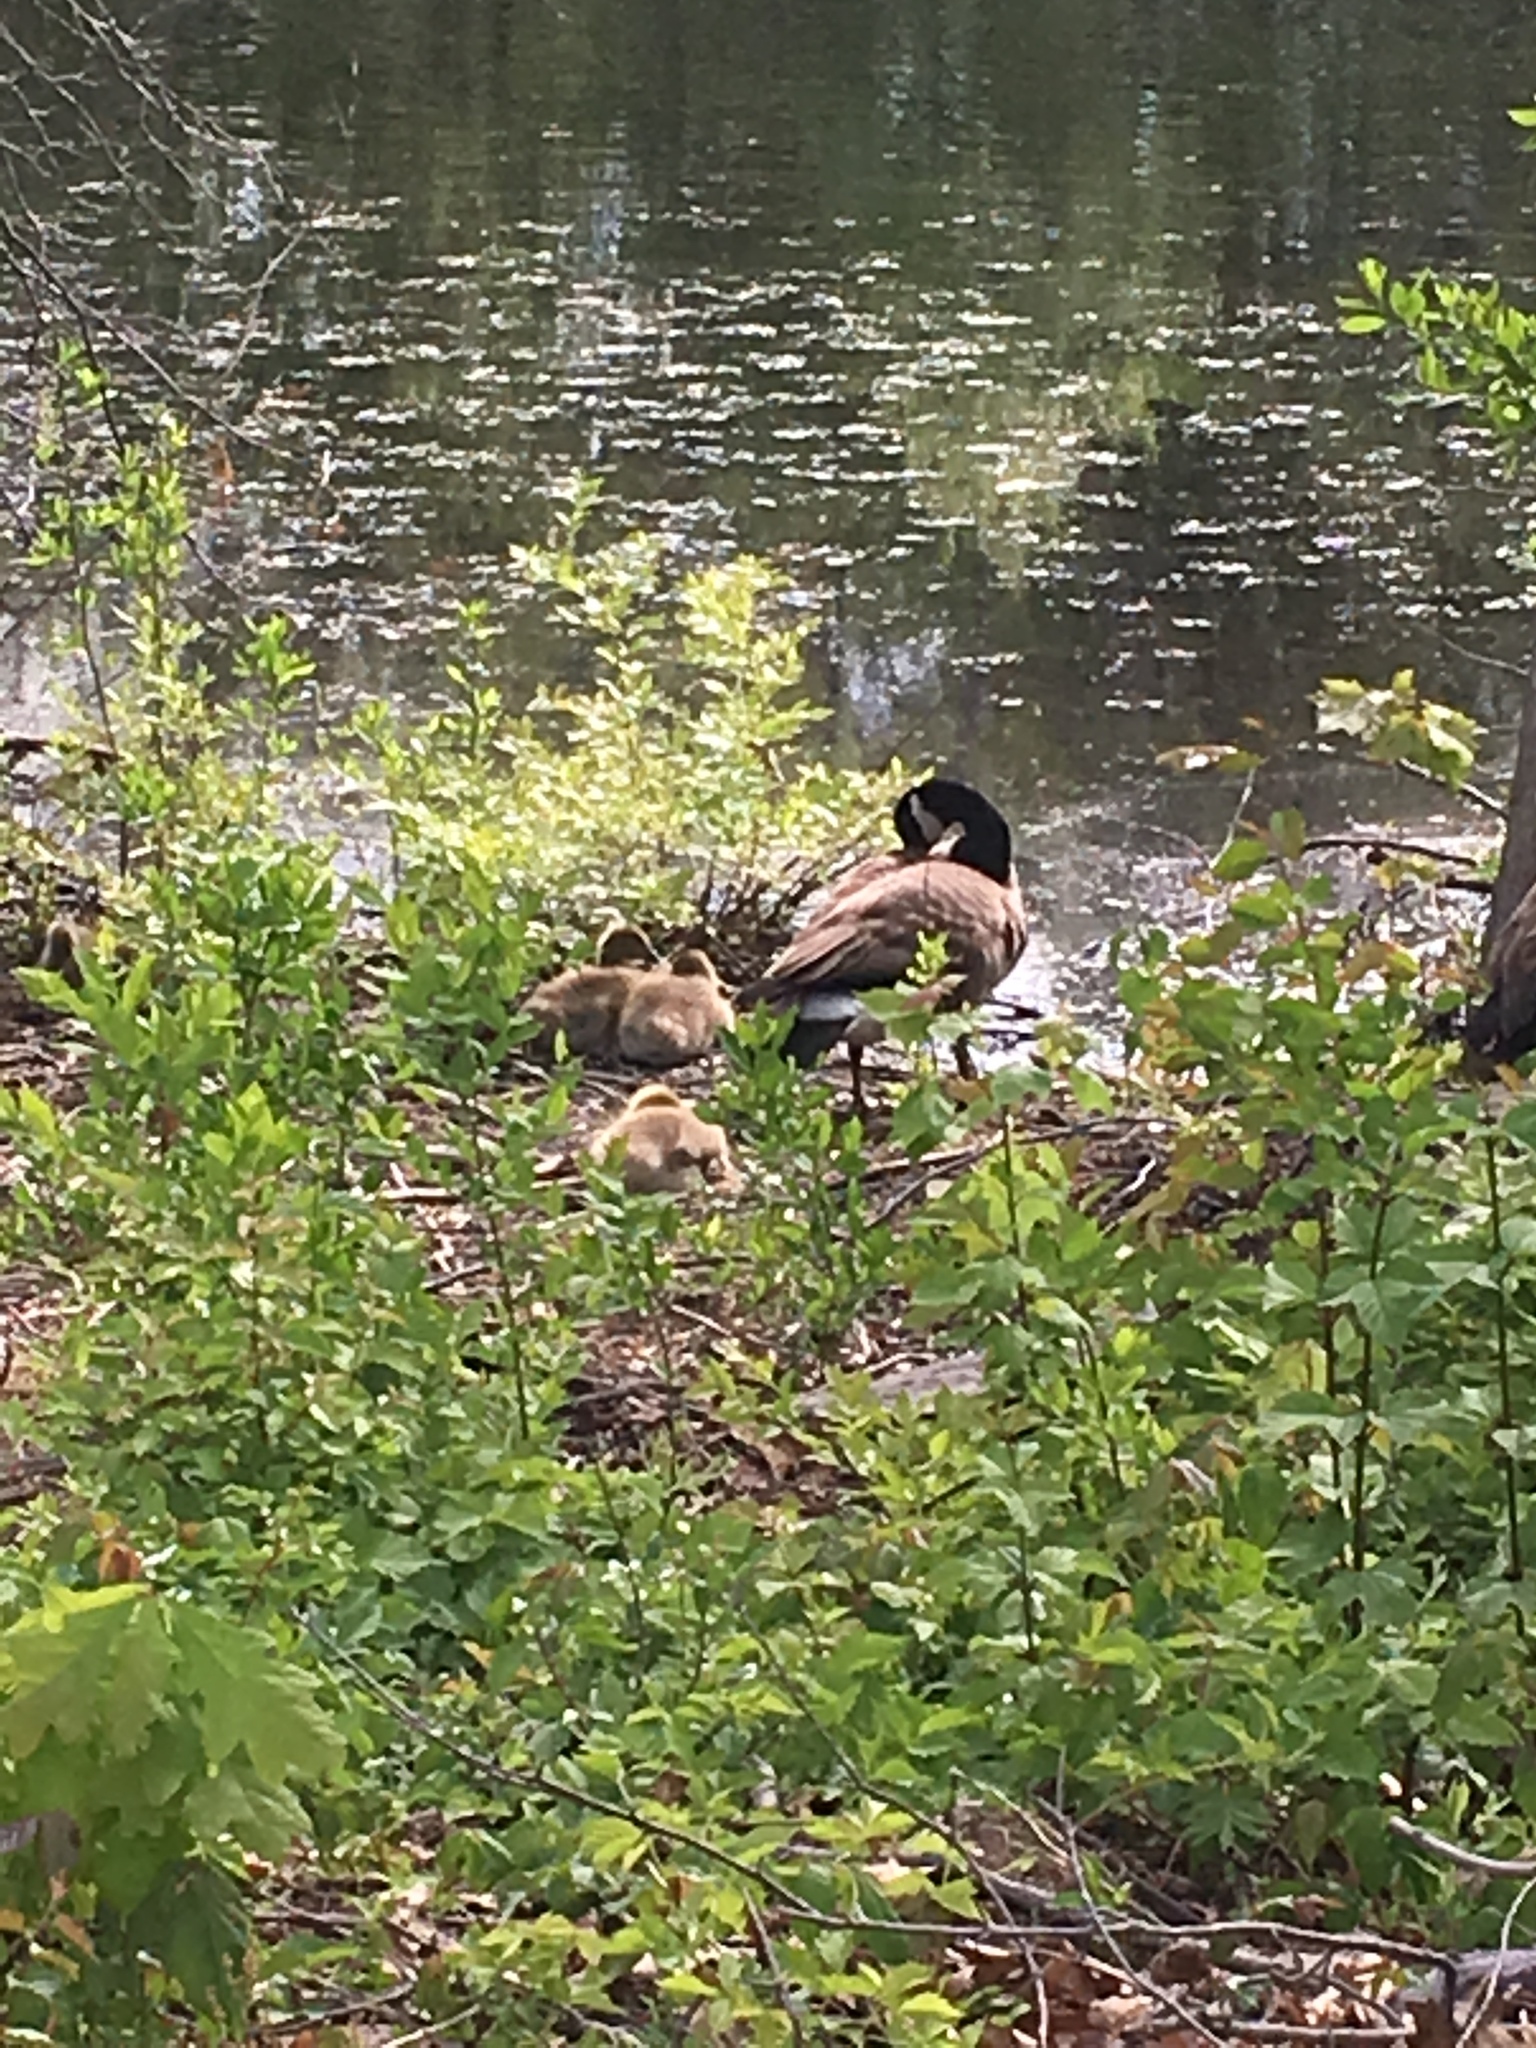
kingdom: Animalia
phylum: Chordata
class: Aves
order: Anseriformes
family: Anatidae
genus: Branta
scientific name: Branta canadensis
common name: Canada goose
